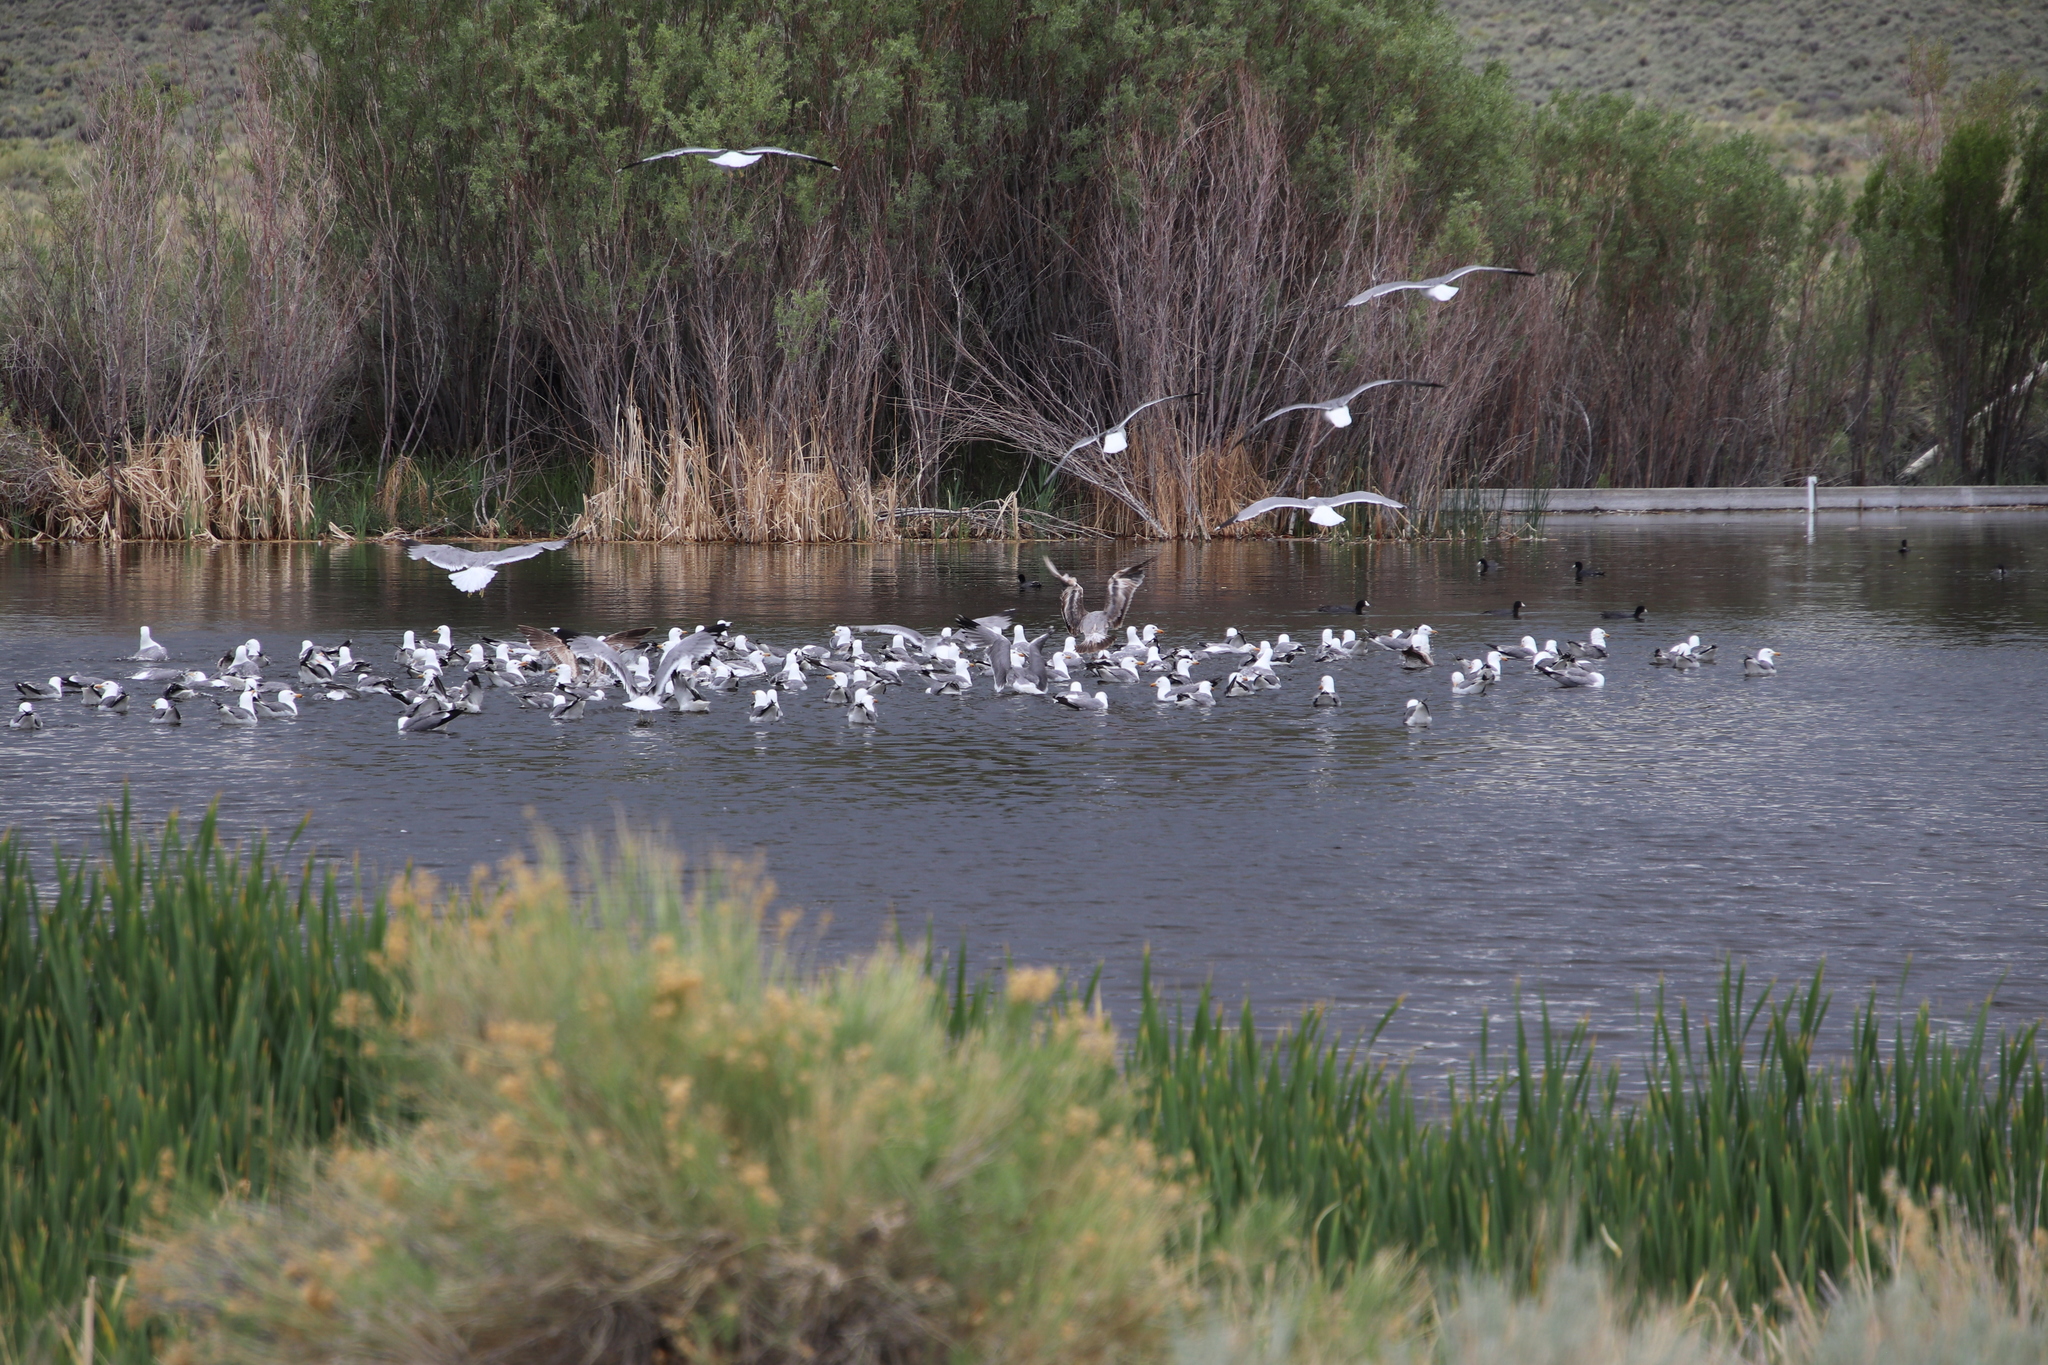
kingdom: Animalia
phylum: Chordata
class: Aves
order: Charadriiformes
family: Laridae
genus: Larus
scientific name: Larus californicus
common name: California gull
